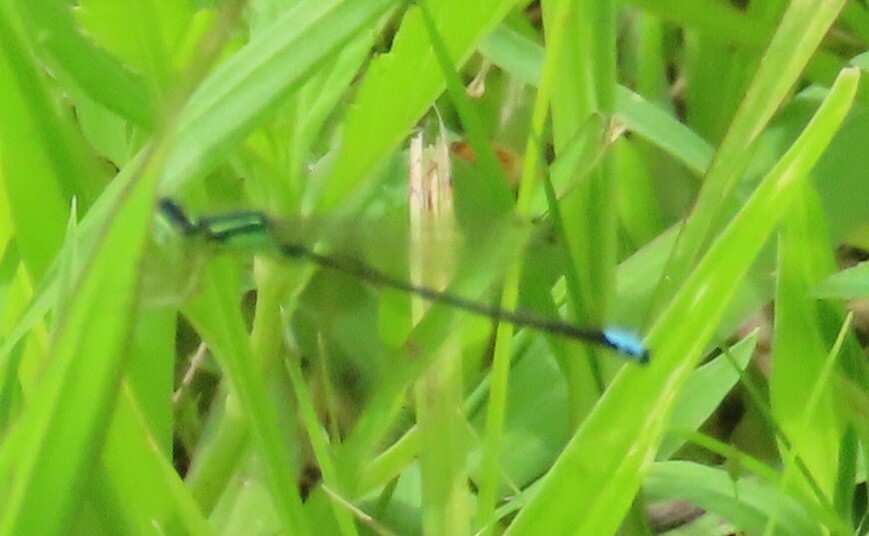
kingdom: Animalia
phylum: Arthropoda
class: Insecta
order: Odonata
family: Coenagrionidae
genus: Ischnura
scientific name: Ischnura verticalis
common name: Eastern forktail
